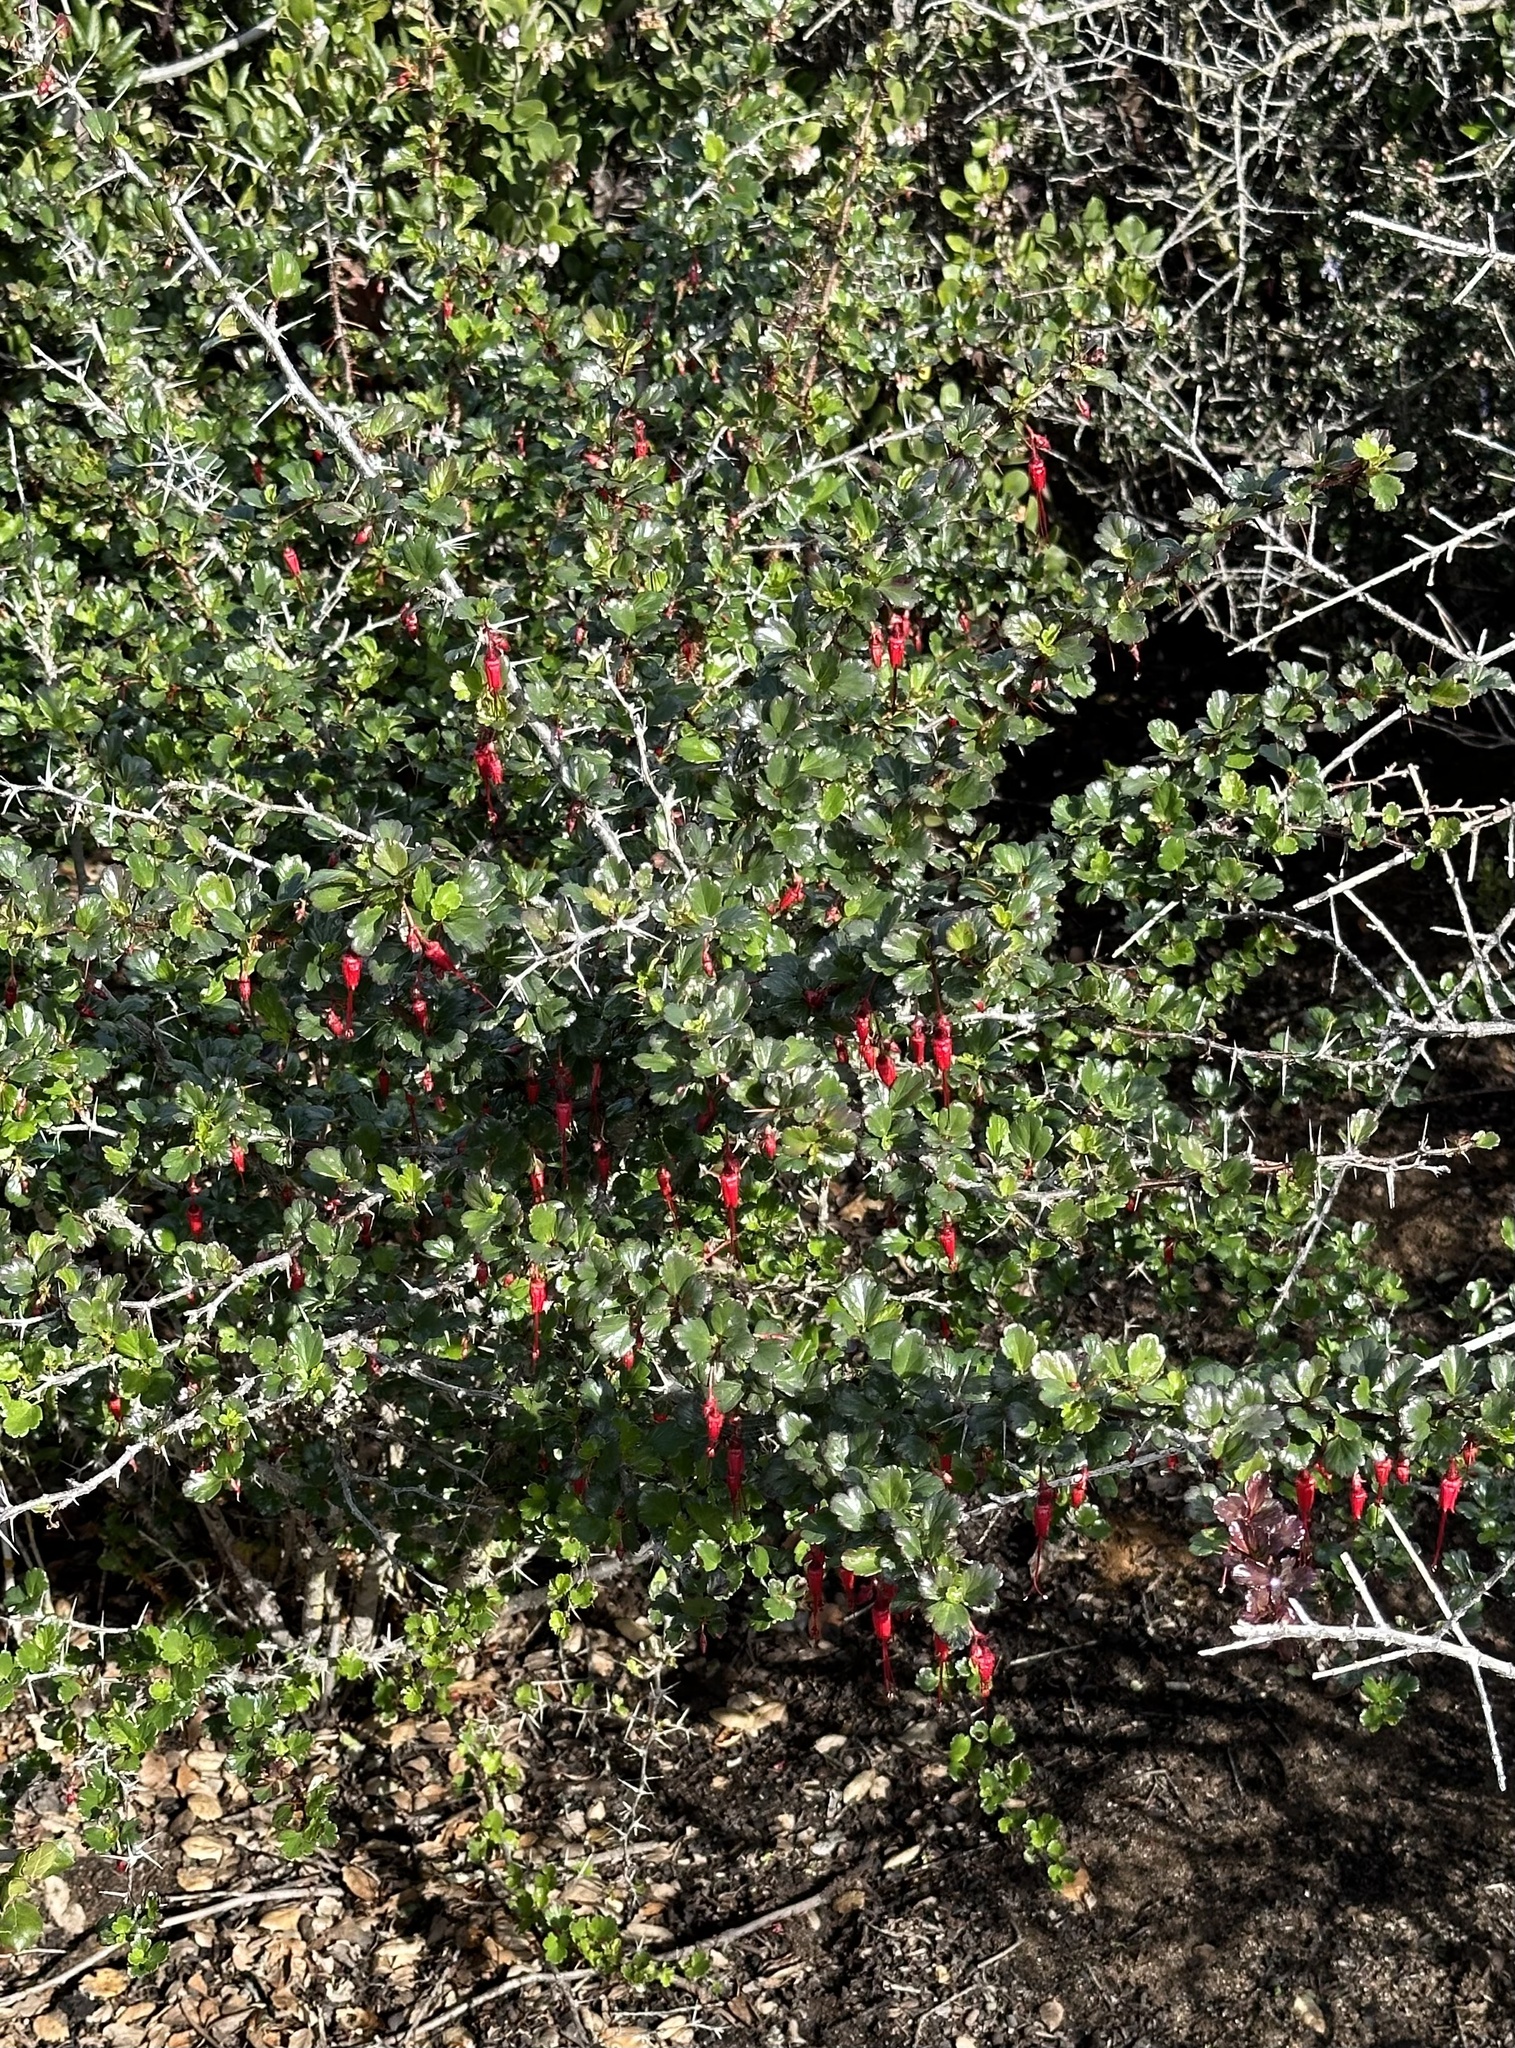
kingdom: Plantae
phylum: Tracheophyta
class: Magnoliopsida
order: Saxifragales
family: Grossulariaceae
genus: Ribes
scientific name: Ribes speciosum
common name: Fuchsia-flower gooseberry
